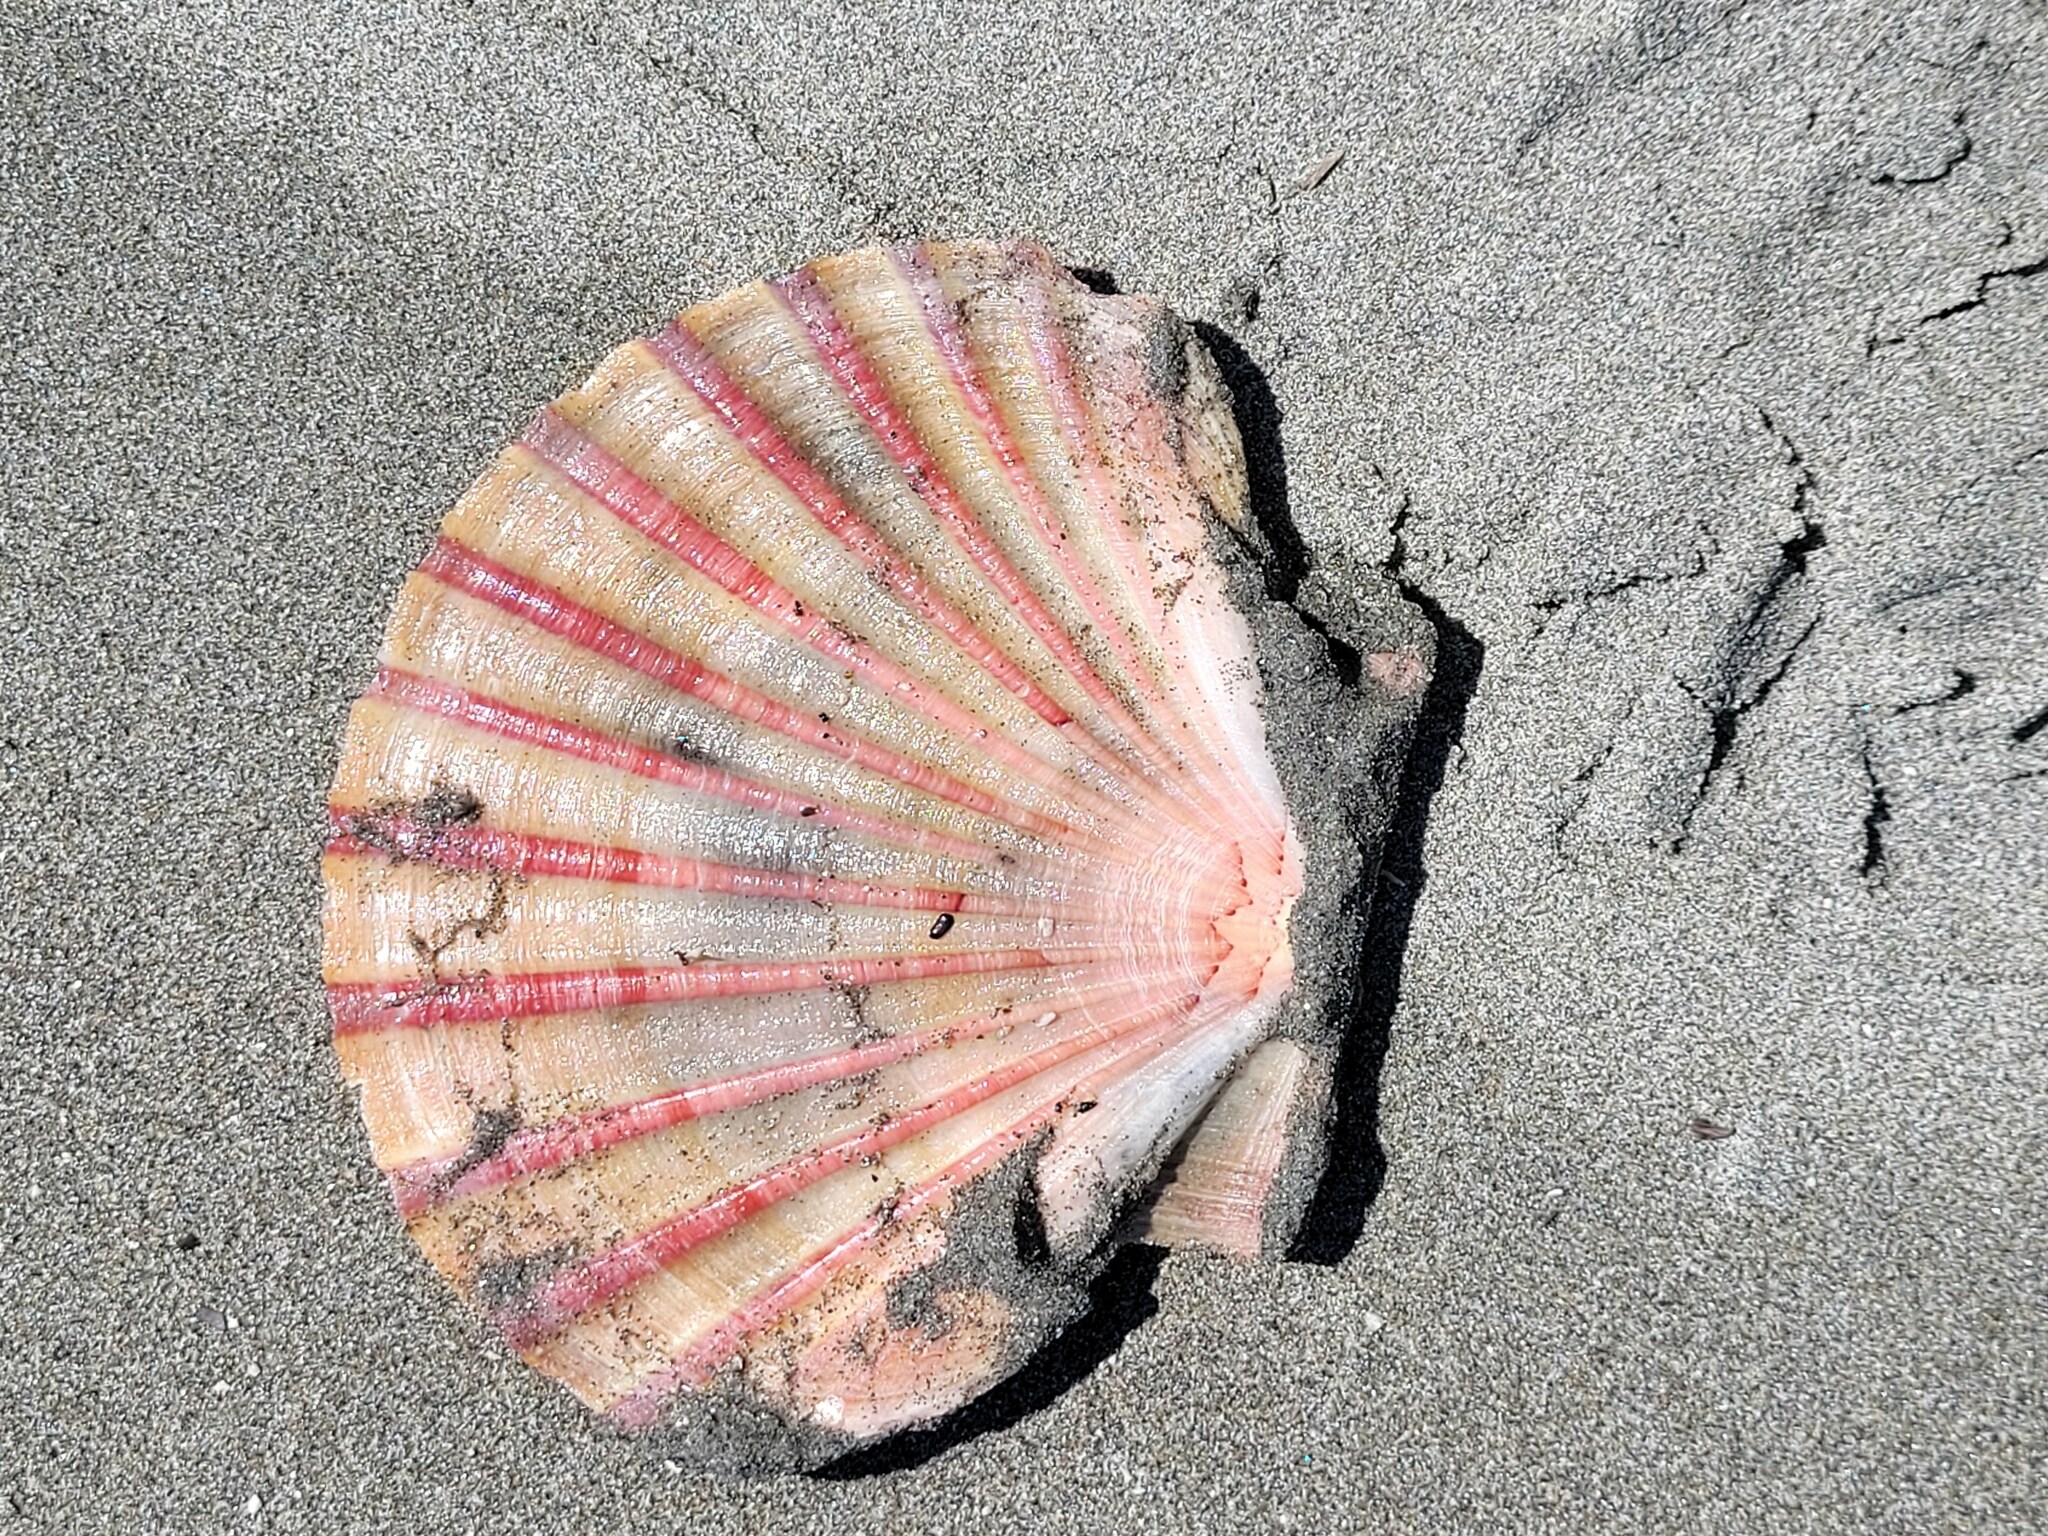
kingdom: Animalia
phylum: Mollusca
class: Bivalvia
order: Pectinida
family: Pectinidae
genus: Pecten
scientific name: Pecten novaezelandiae
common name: New zealand scallop
